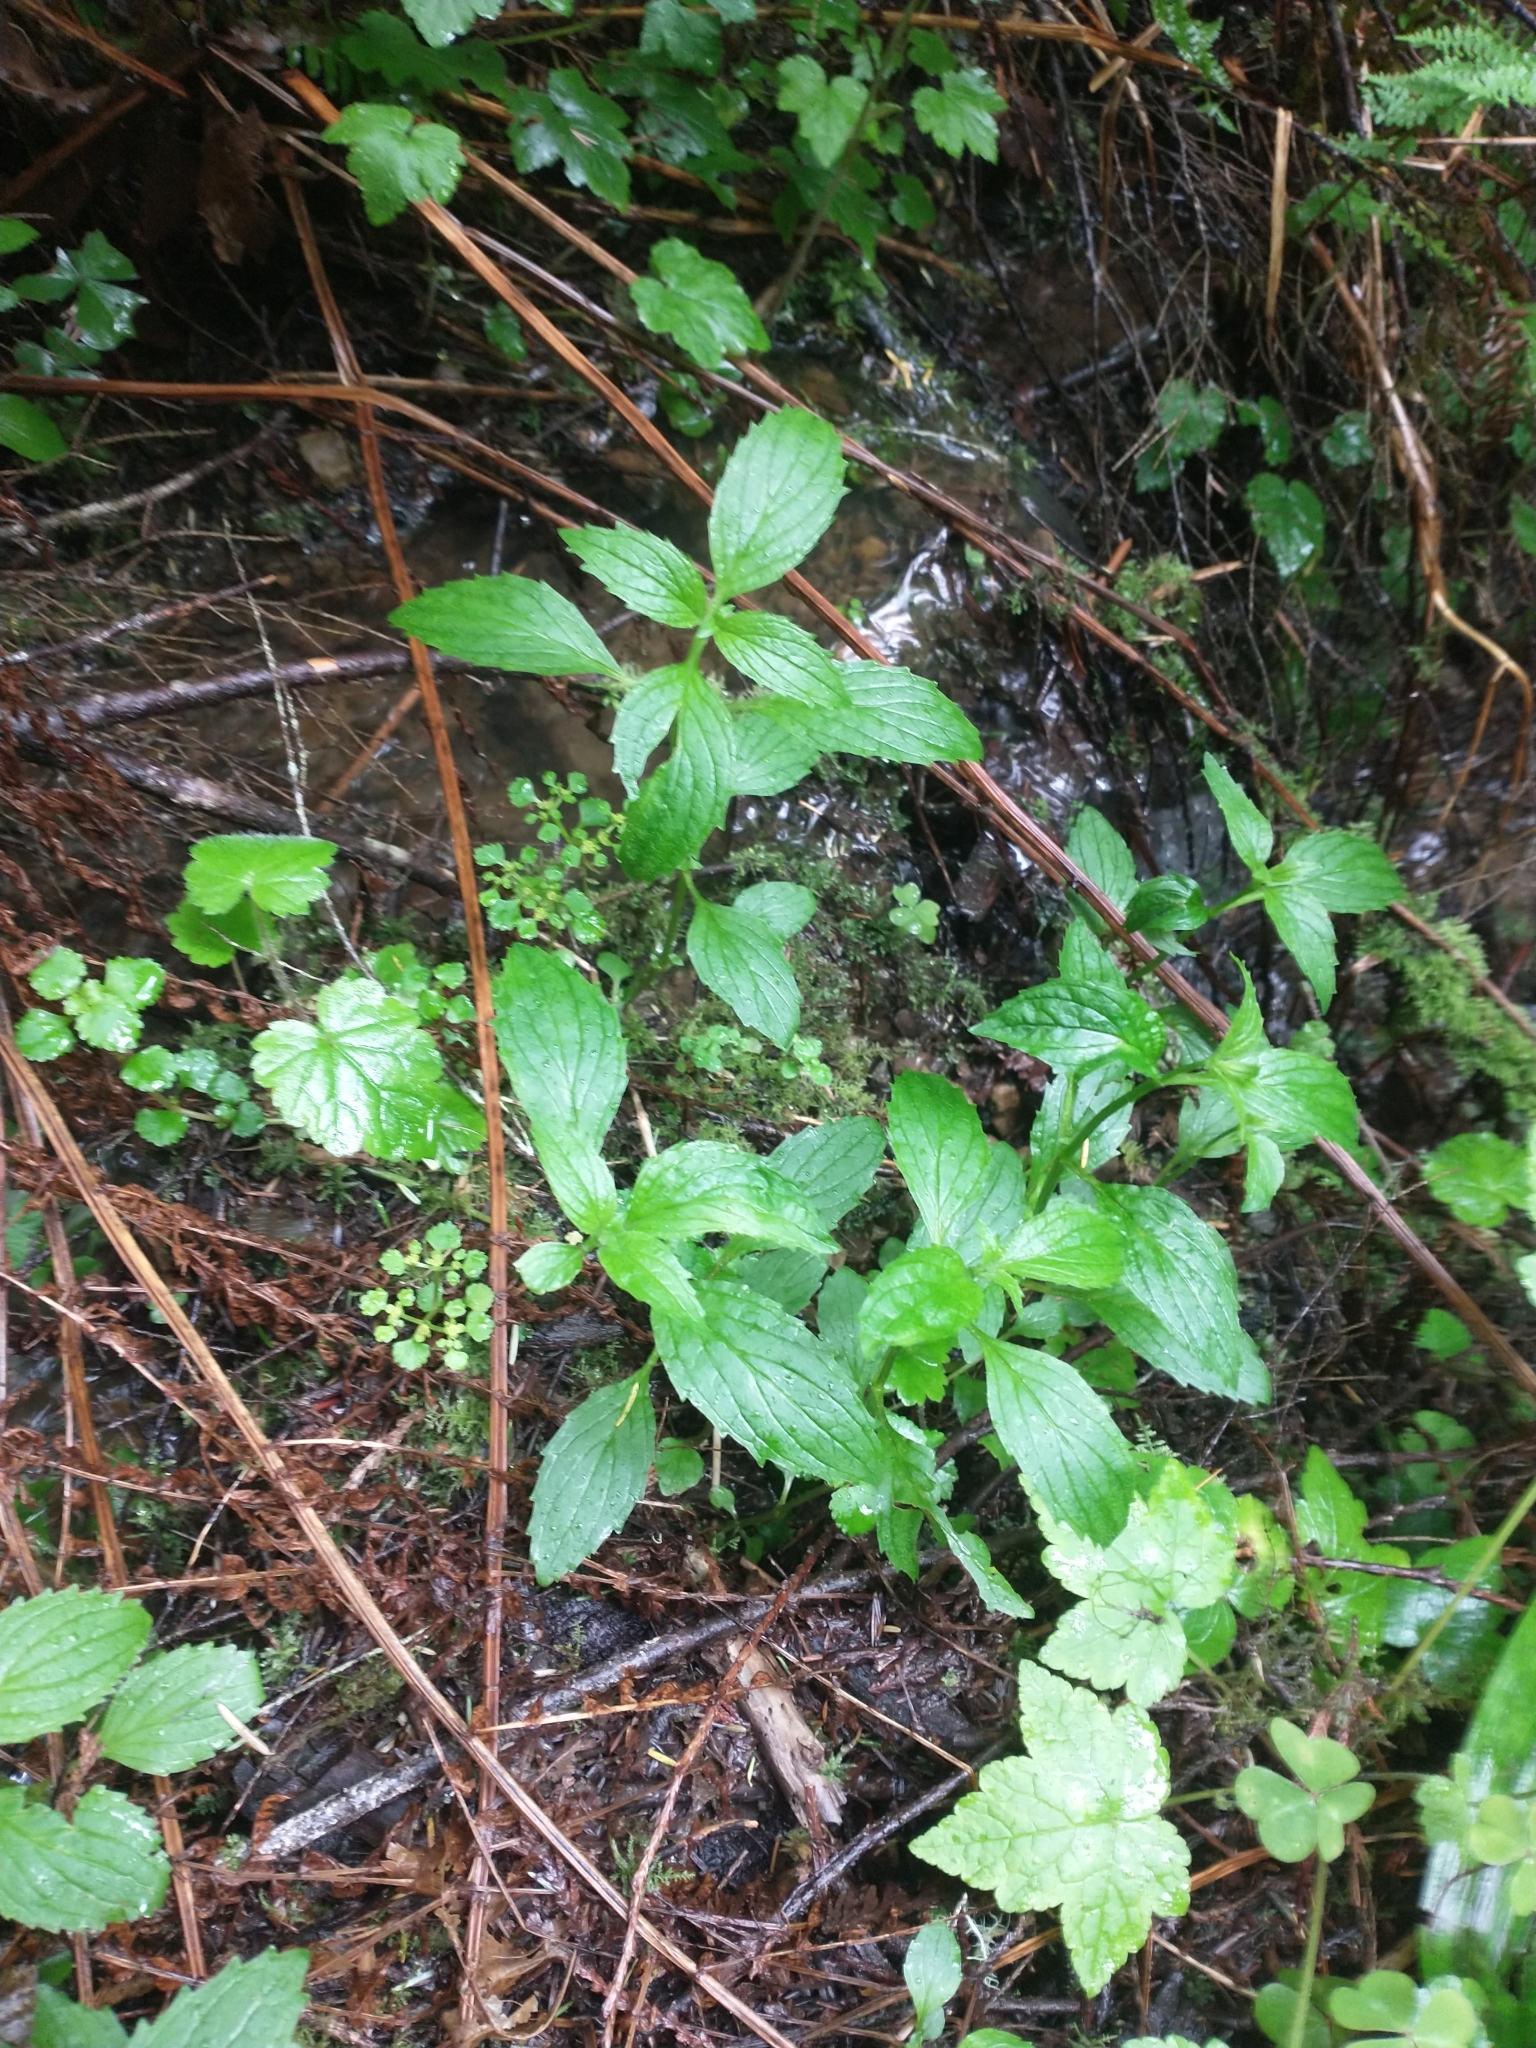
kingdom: Plantae
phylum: Tracheophyta
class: Magnoliopsida
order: Lamiales
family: Phrymaceae
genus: Erythranthe
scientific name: Erythranthe dentata
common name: Coastal monkeyflower
